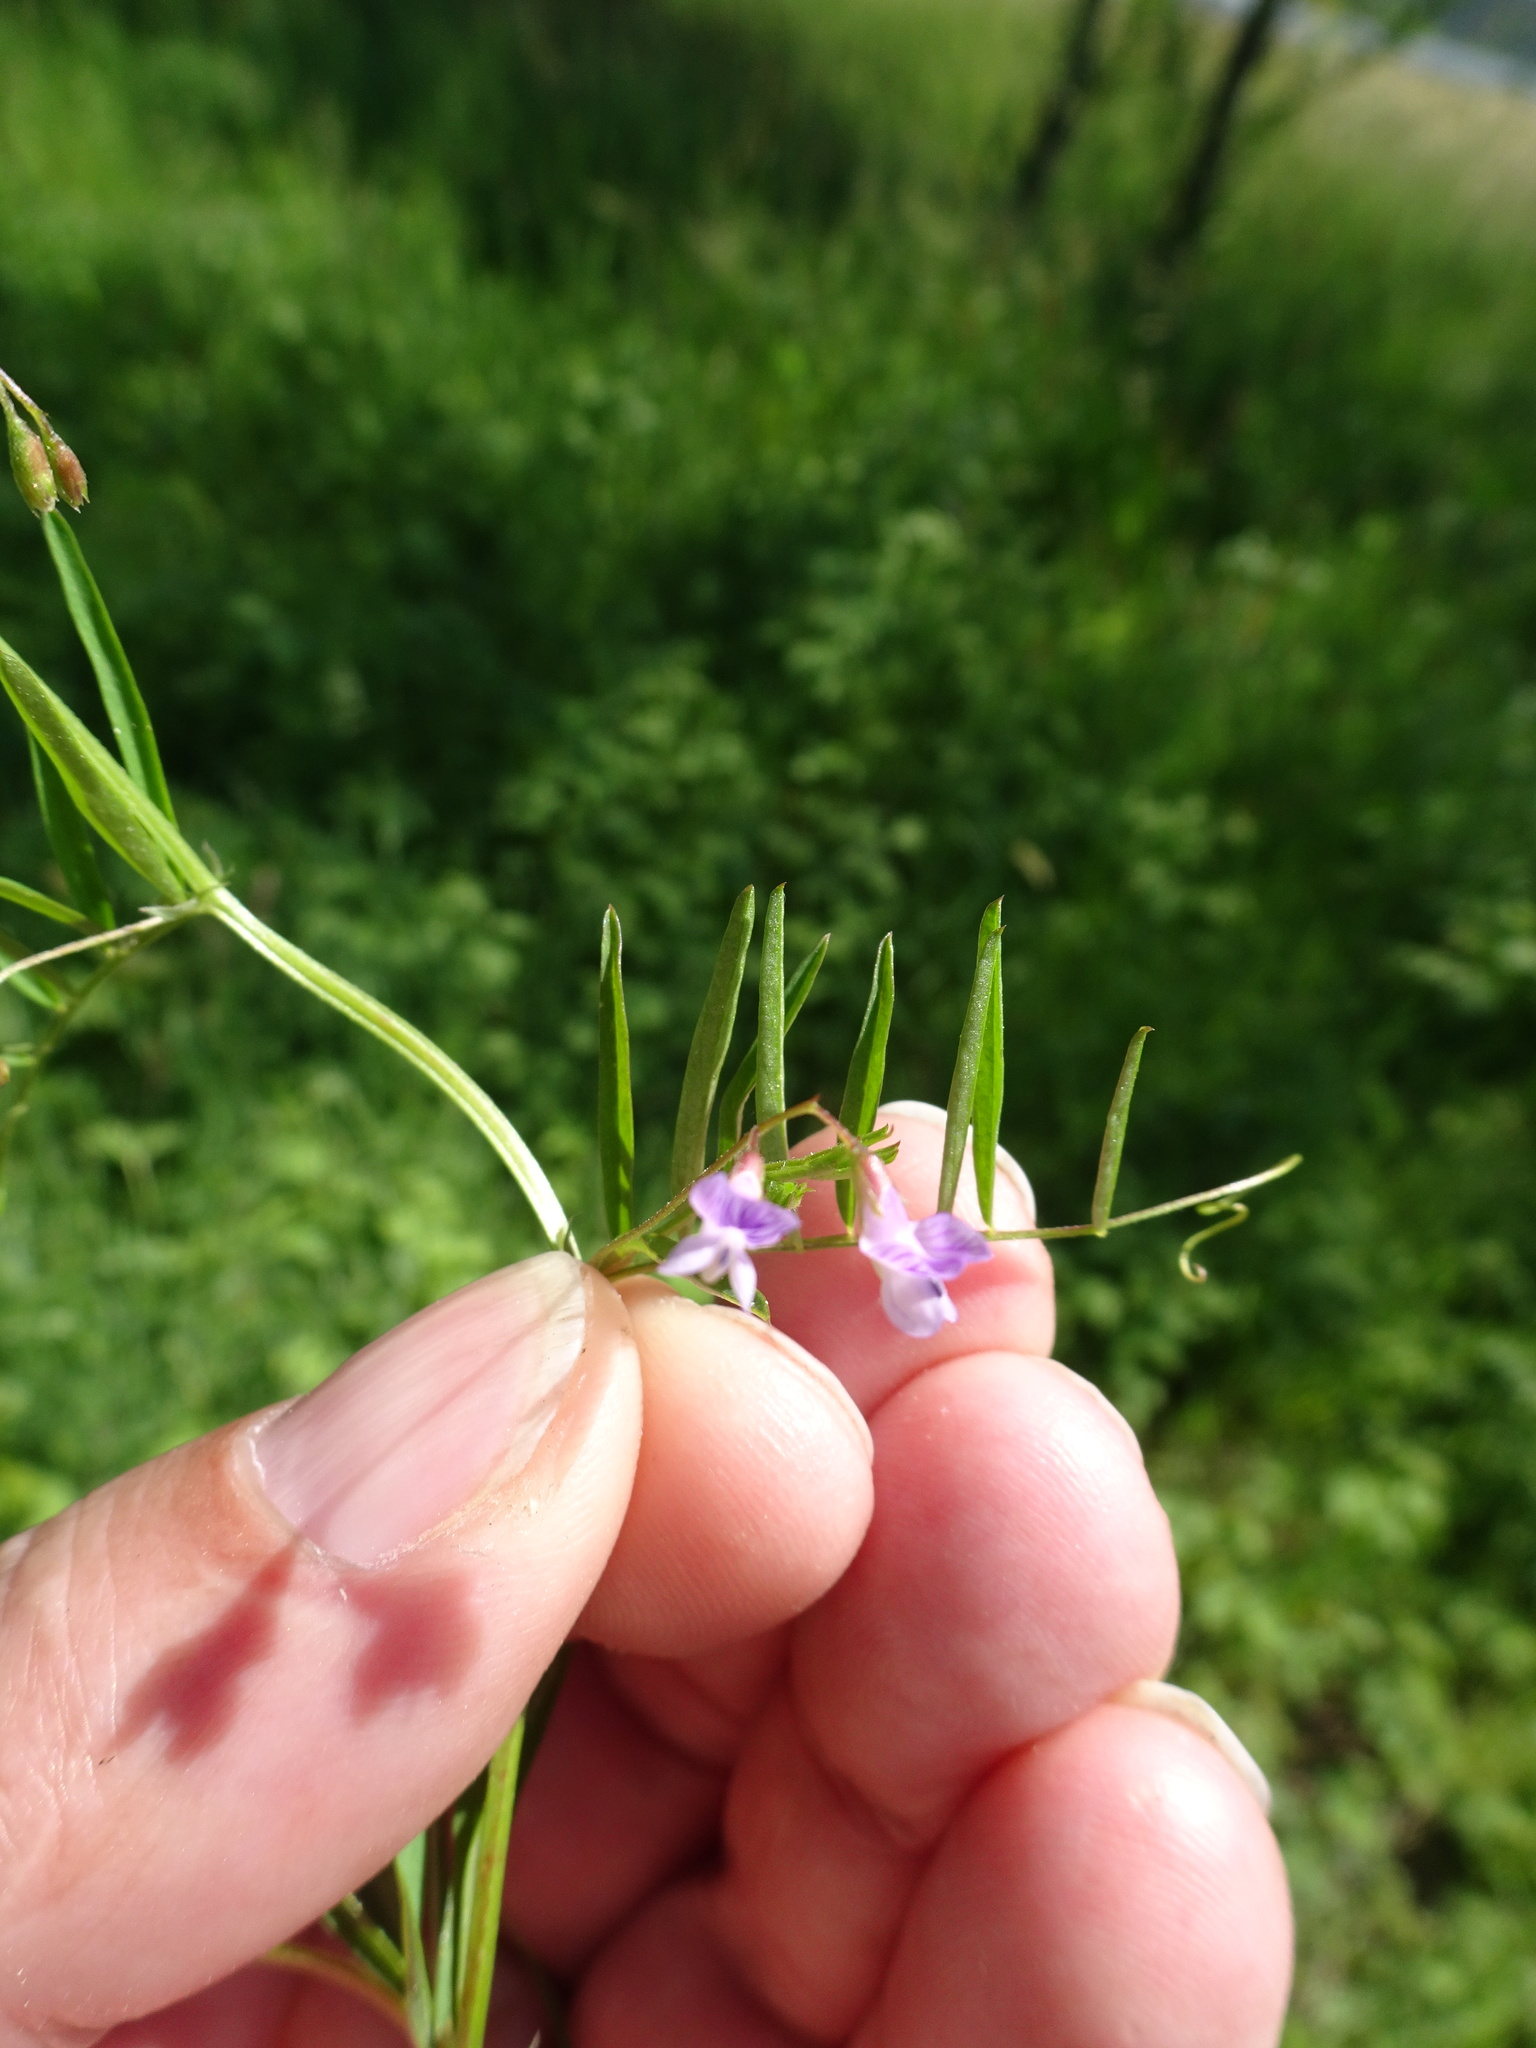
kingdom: Plantae
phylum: Tracheophyta
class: Magnoliopsida
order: Fabales
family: Fabaceae
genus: Vicia
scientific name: Vicia tetrasperma
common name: Smooth tare
